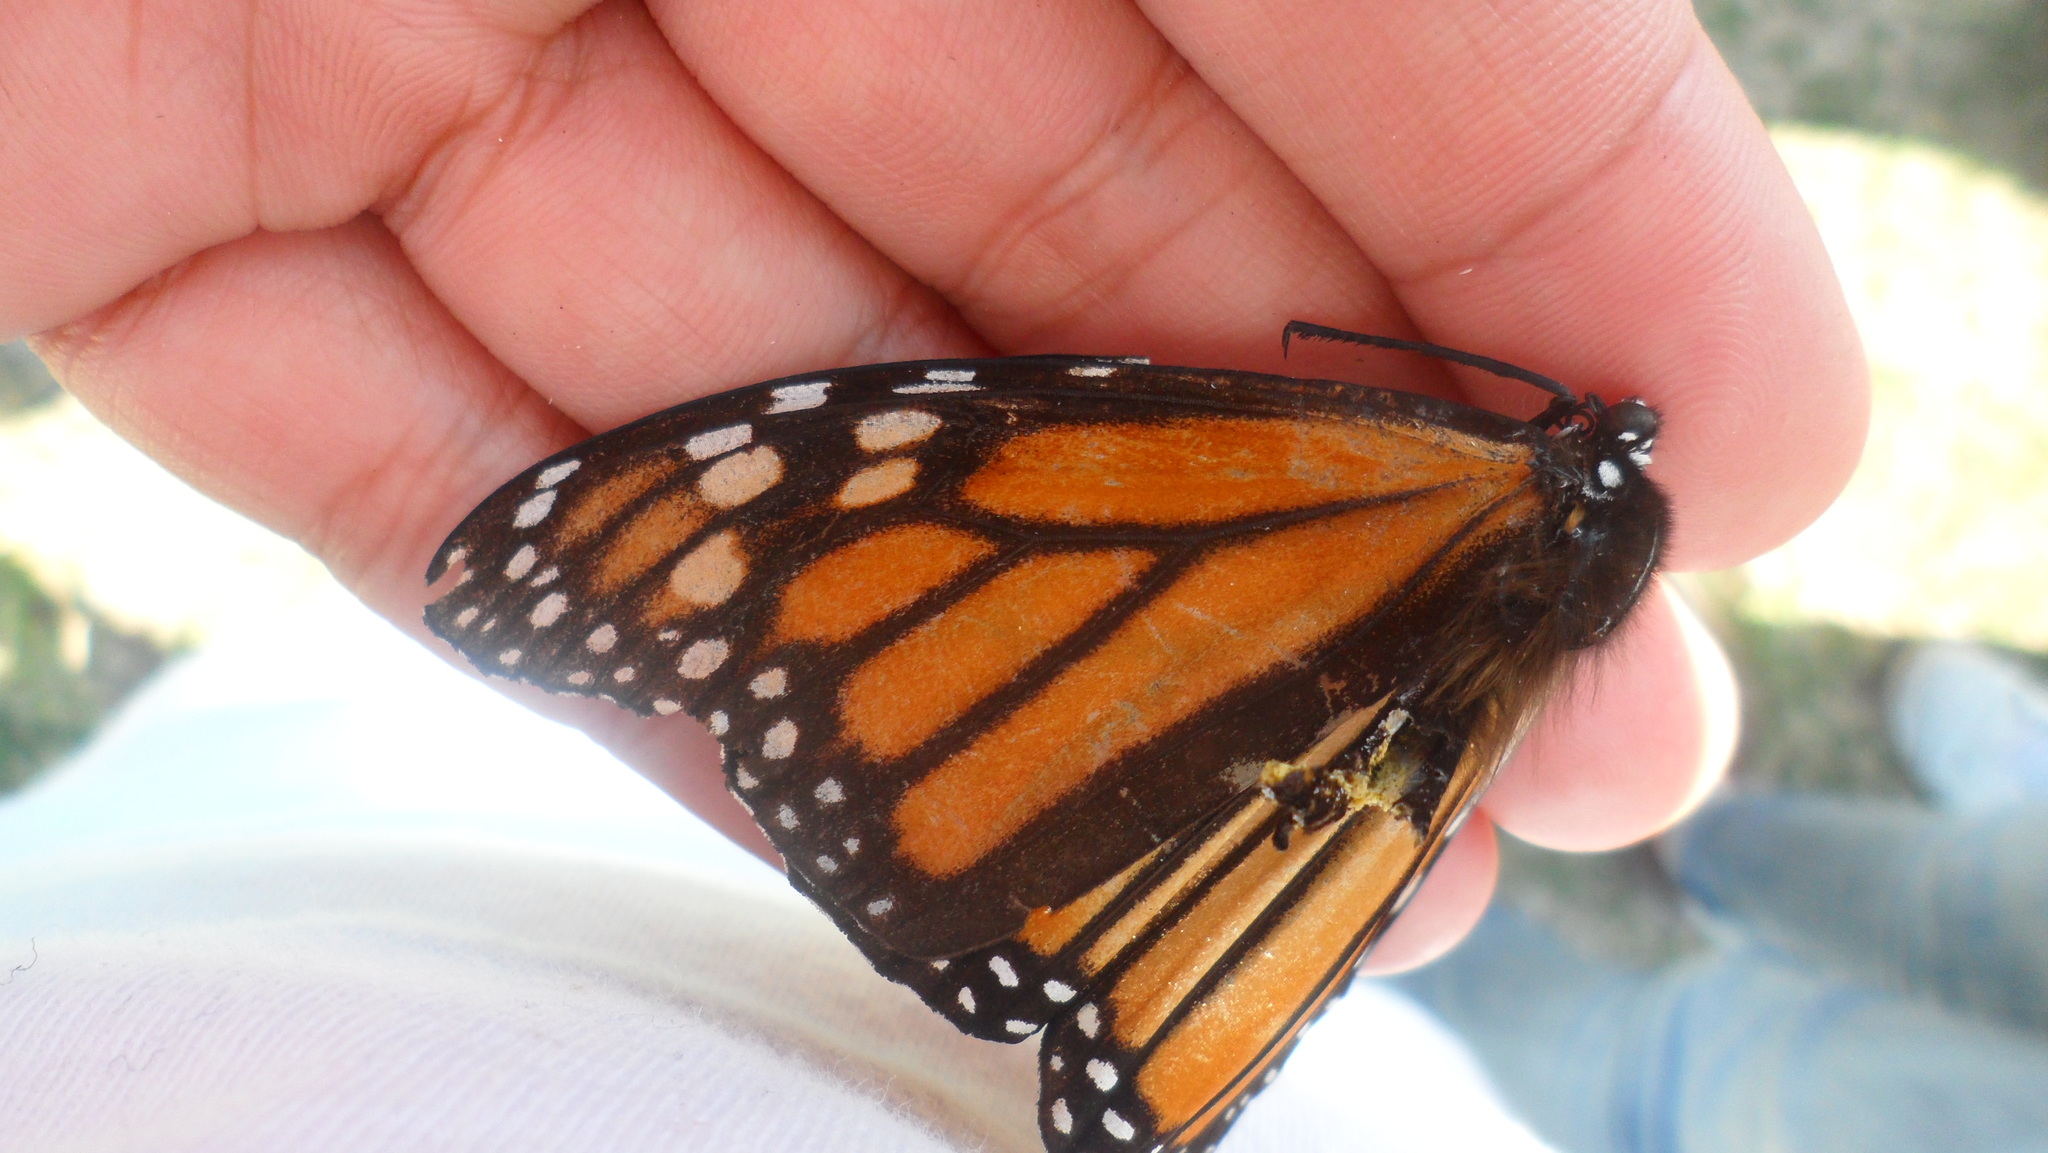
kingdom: Animalia
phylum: Arthropoda
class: Insecta
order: Lepidoptera
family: Nymphalidae
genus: Danaus
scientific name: Danaus plexippus
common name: Monarch
